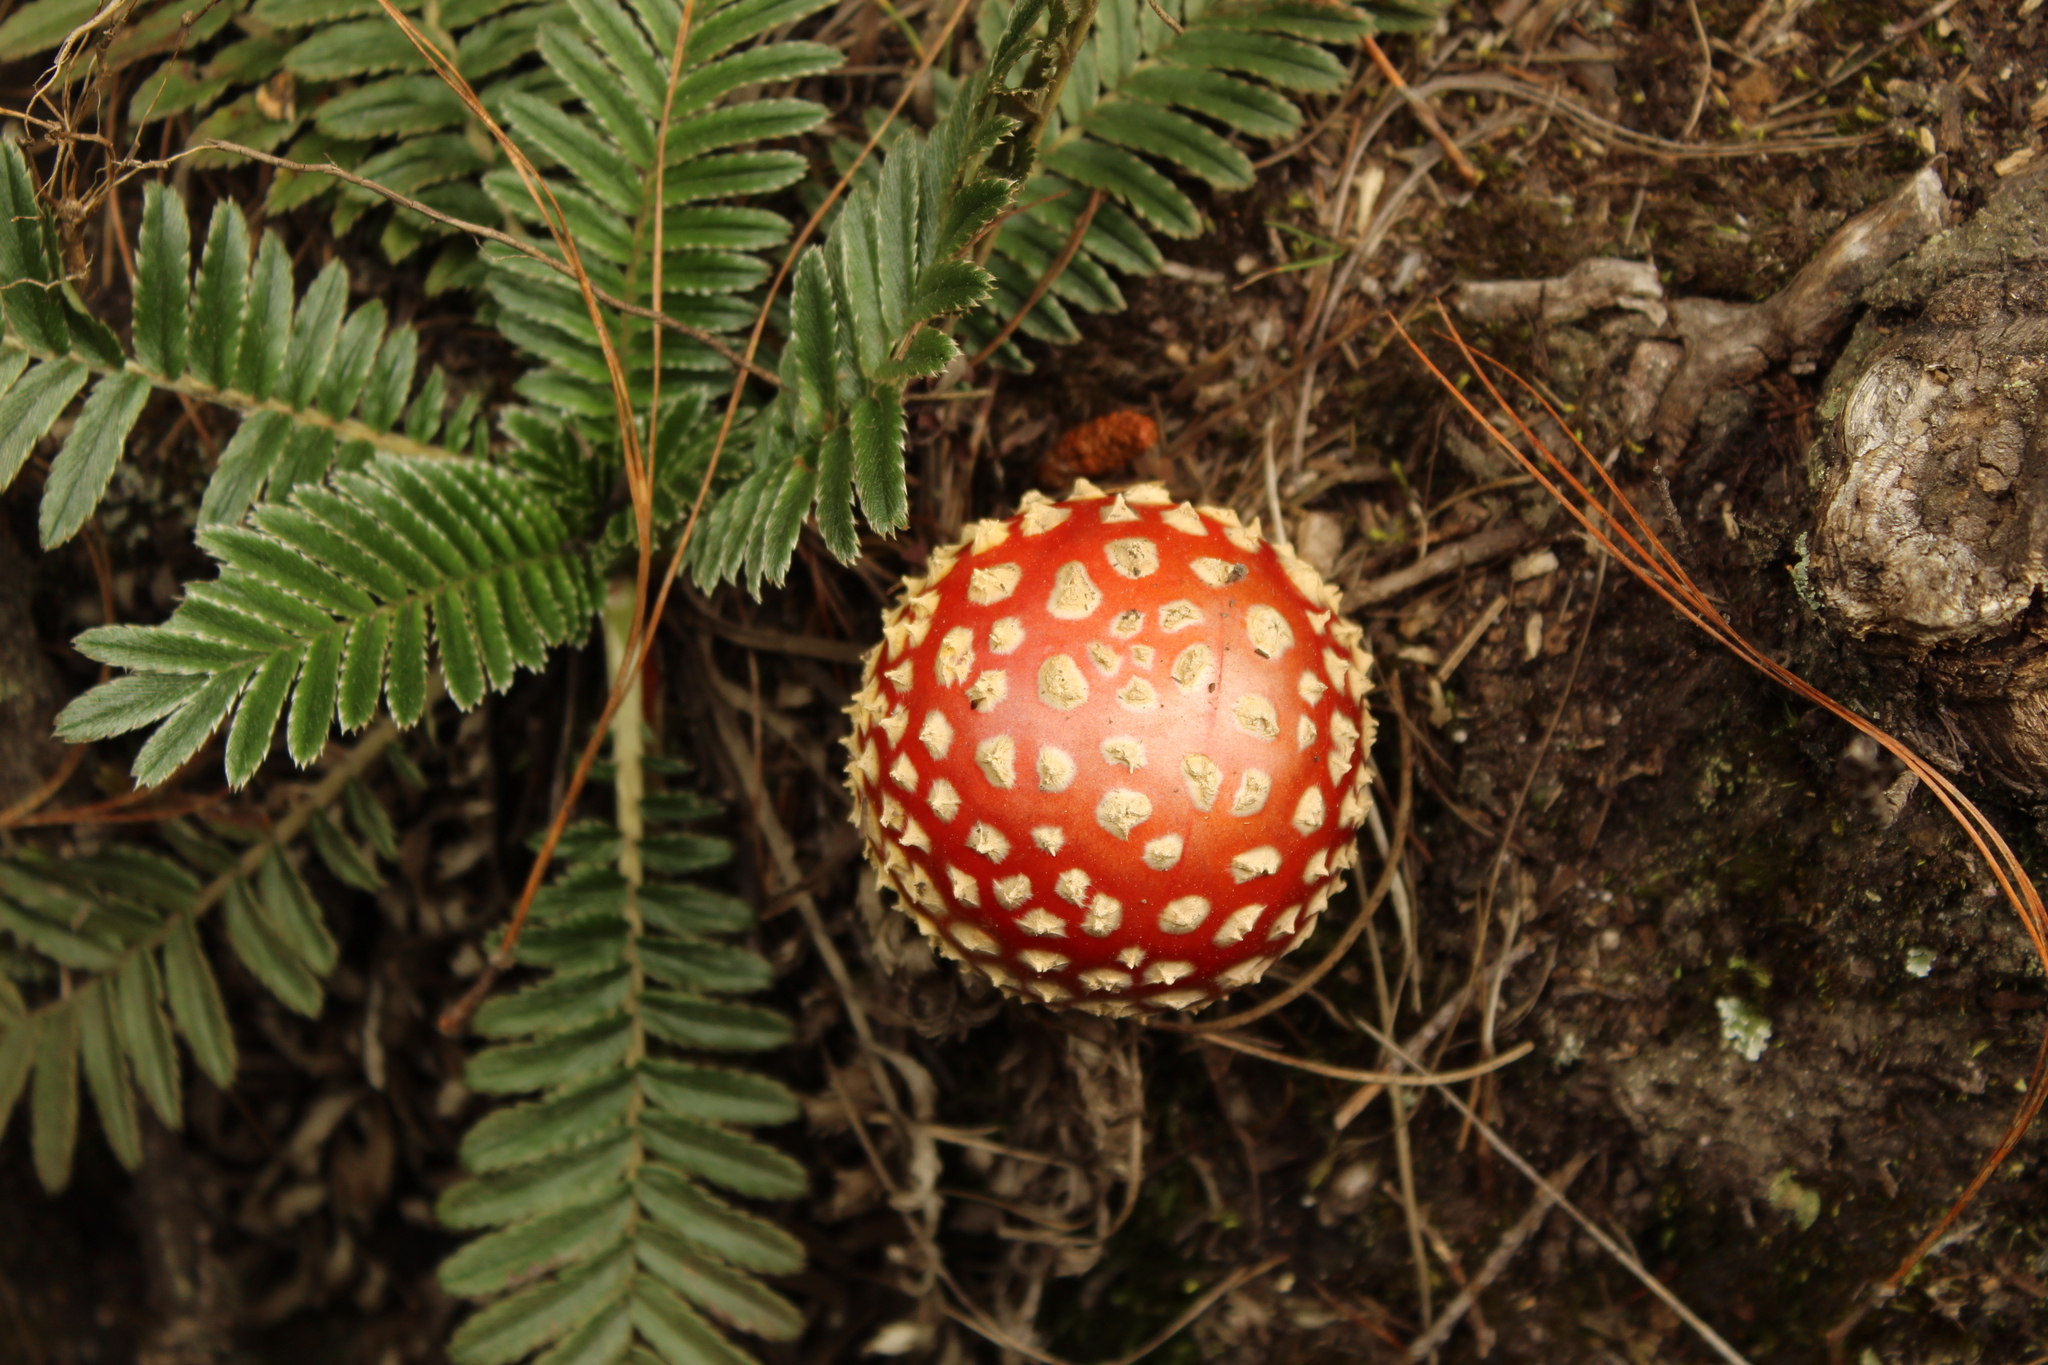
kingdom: Fungi
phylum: Basidiomycota
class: Agaricomycetes
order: Agaricales
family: Amanitaceae
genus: Amanita
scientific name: Amanita muscaria
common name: Fly agaric
